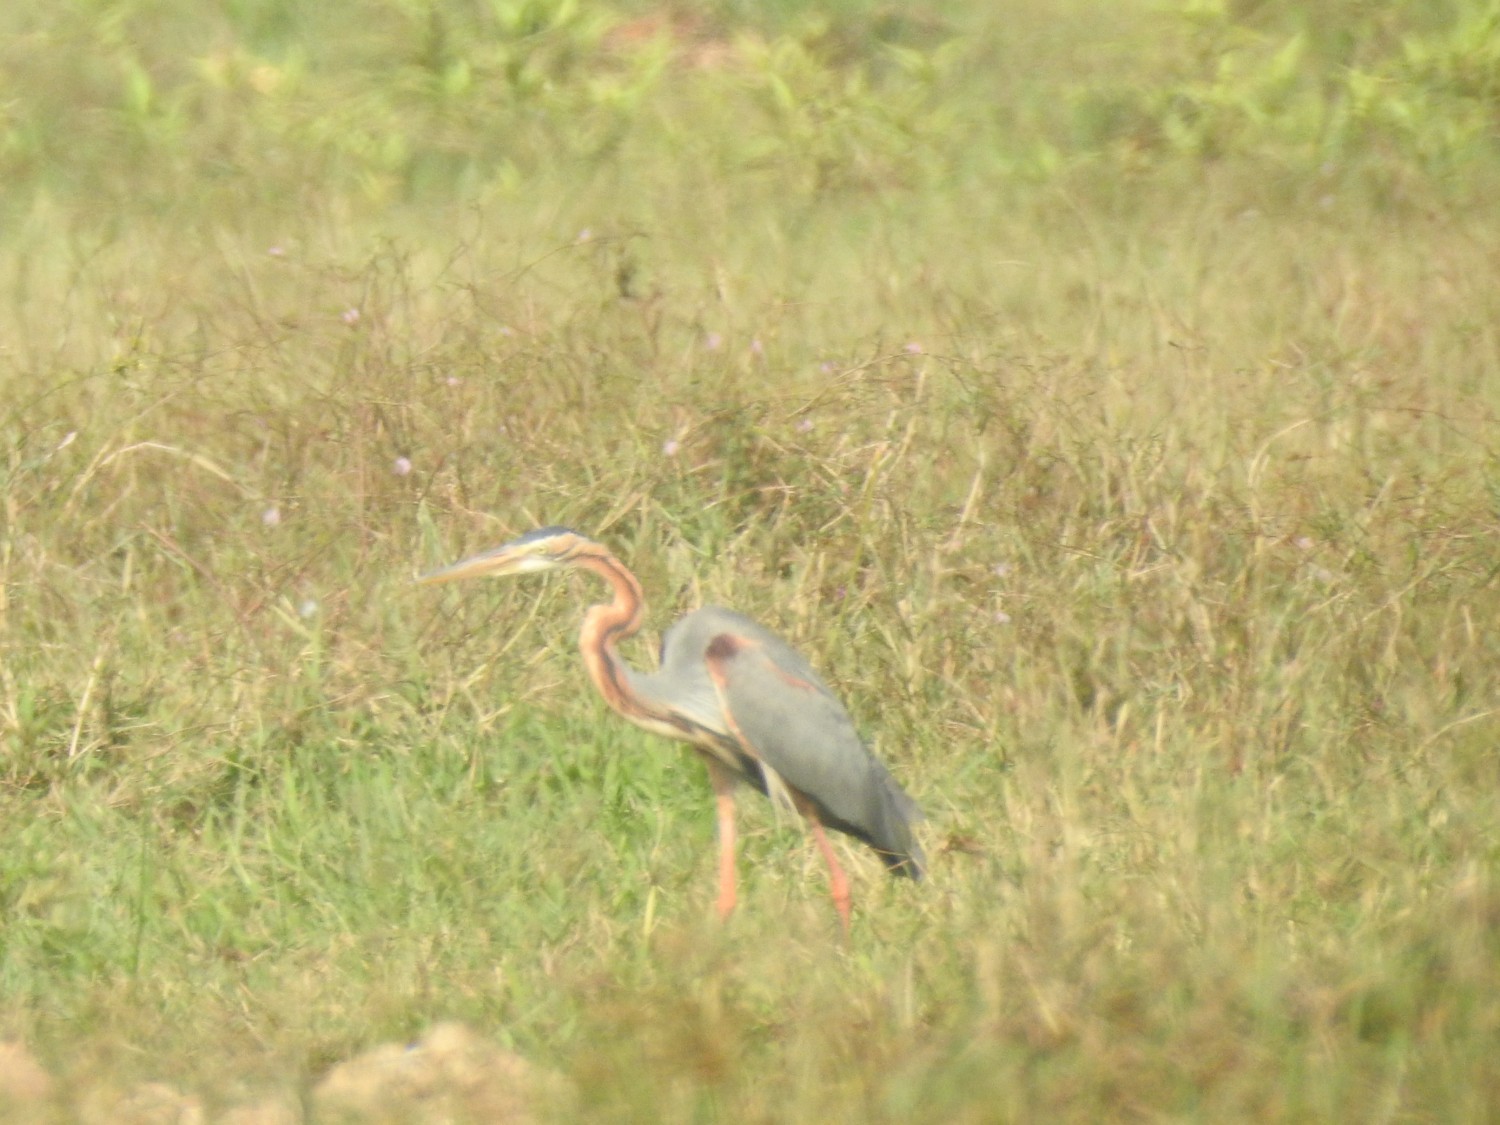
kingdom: Animalia
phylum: Chordata
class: Aves
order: Pelecaniformes
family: Ardeidae
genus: Ardea
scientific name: Ardea purpurea
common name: Purple heron
